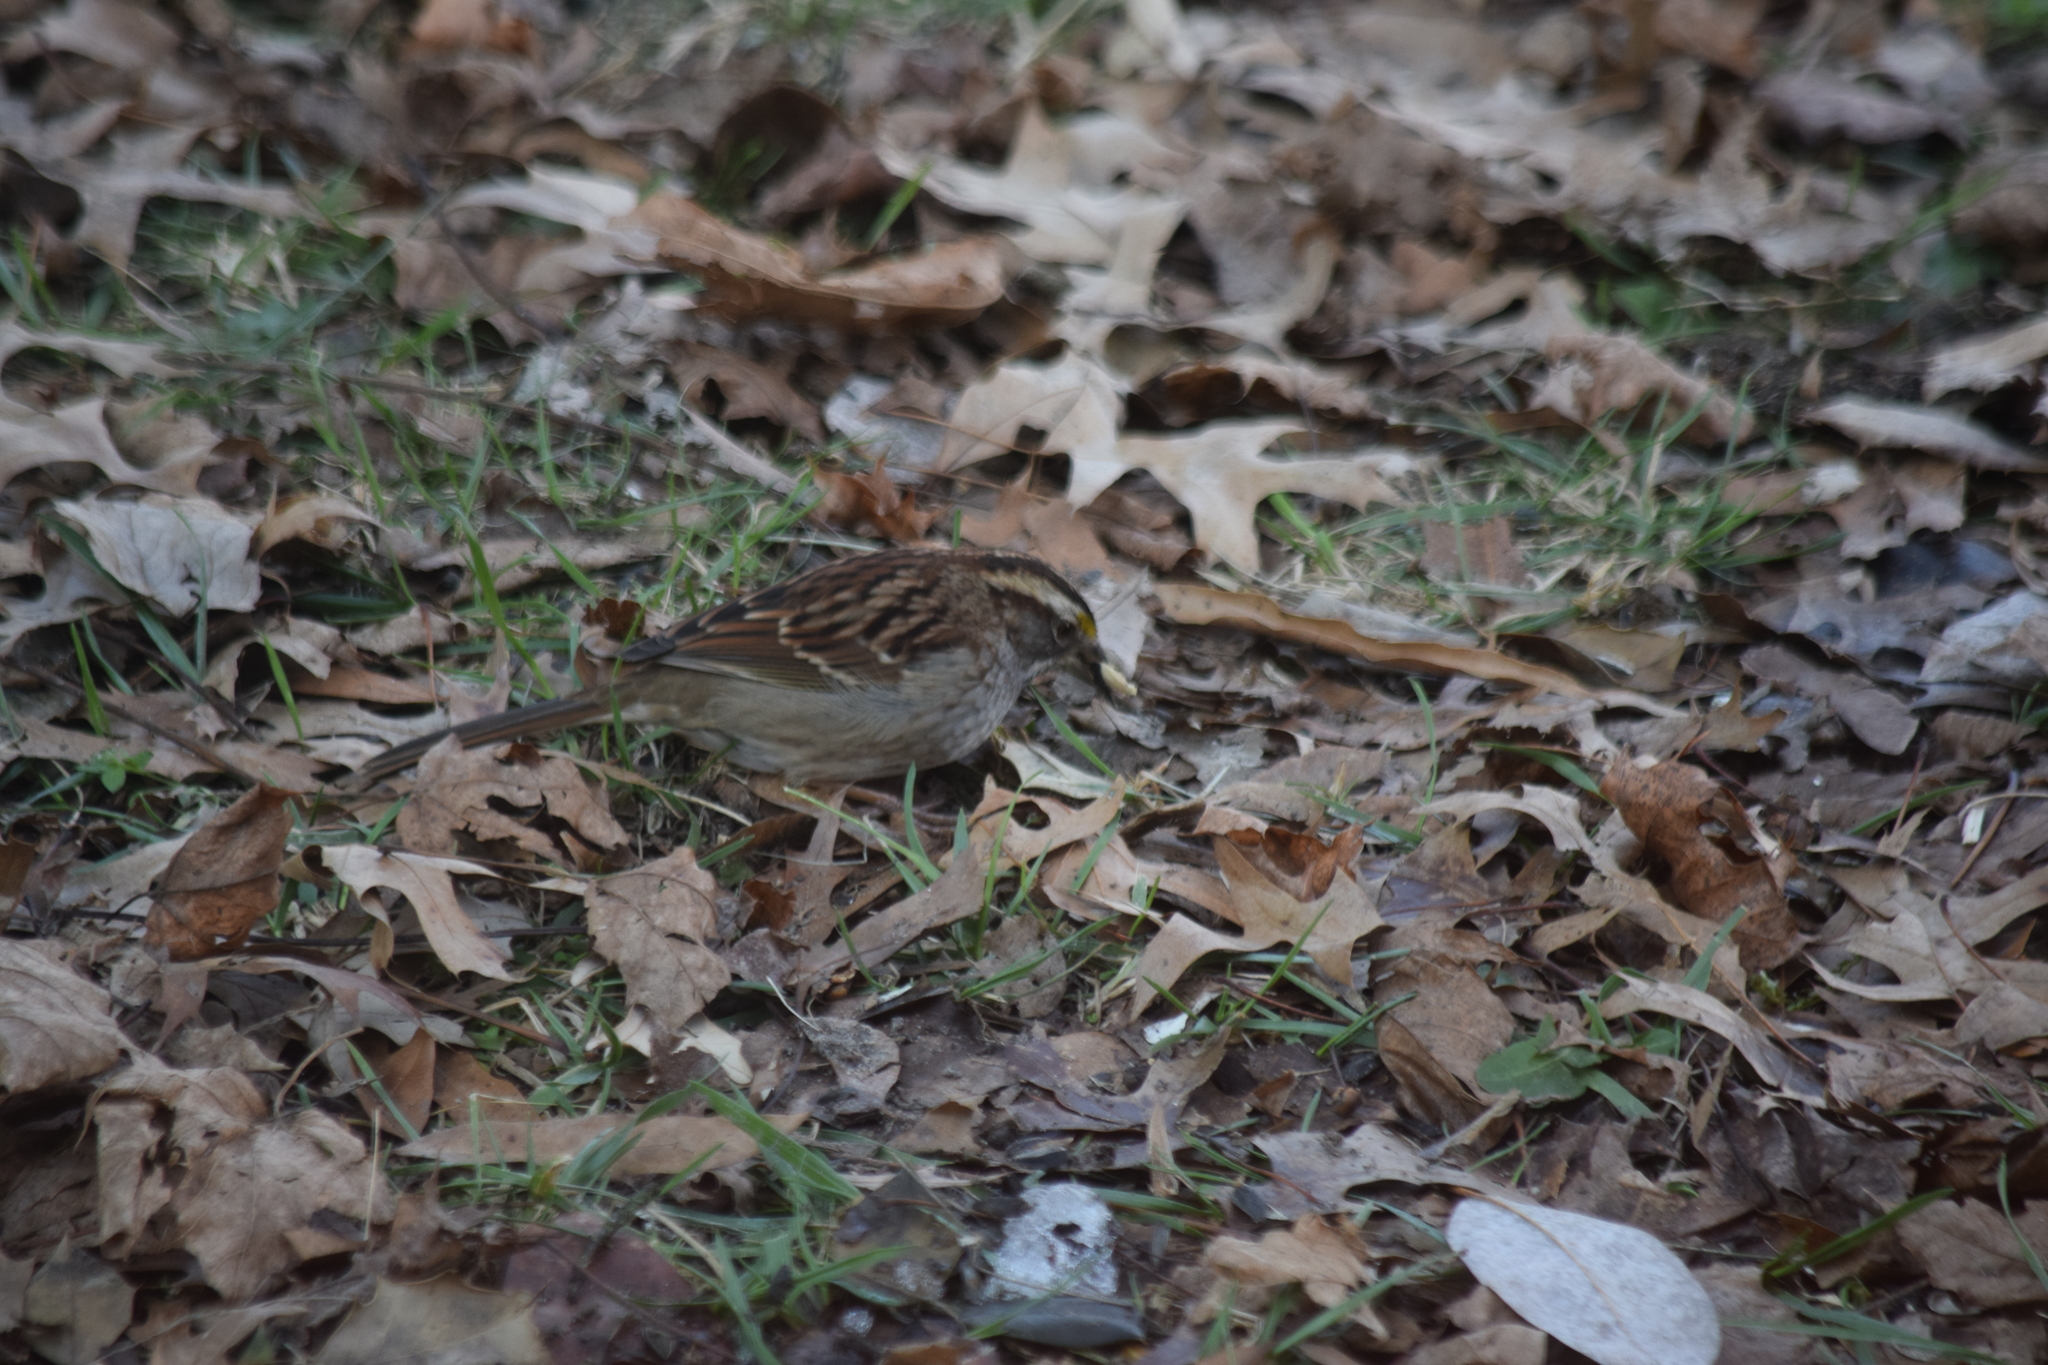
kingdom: Animalia
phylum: Chordata
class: Aves
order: Passeriformes
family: Passerellidae
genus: Zonotrichia
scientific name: Zonotrichia albicollis
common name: White-throated sparrow
